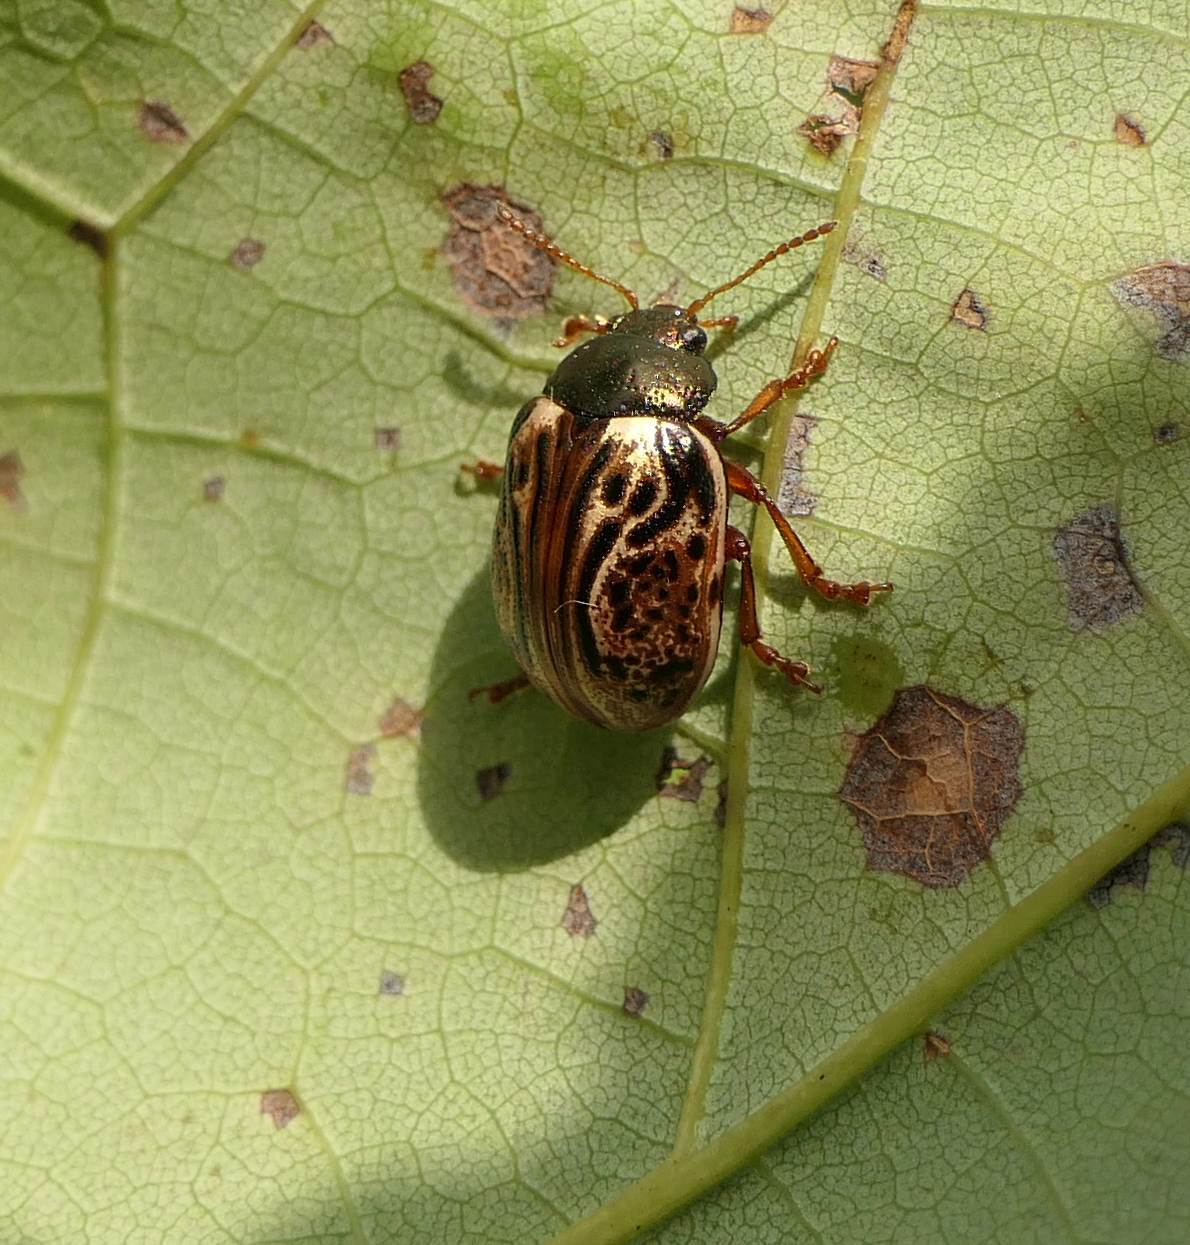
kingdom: Animalia
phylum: Arthropoda
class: Insecta
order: Coleoptera
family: Chrysomelidae
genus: Calligrapha
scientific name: Calligrapha alni
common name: Russet alder leaf beetle
